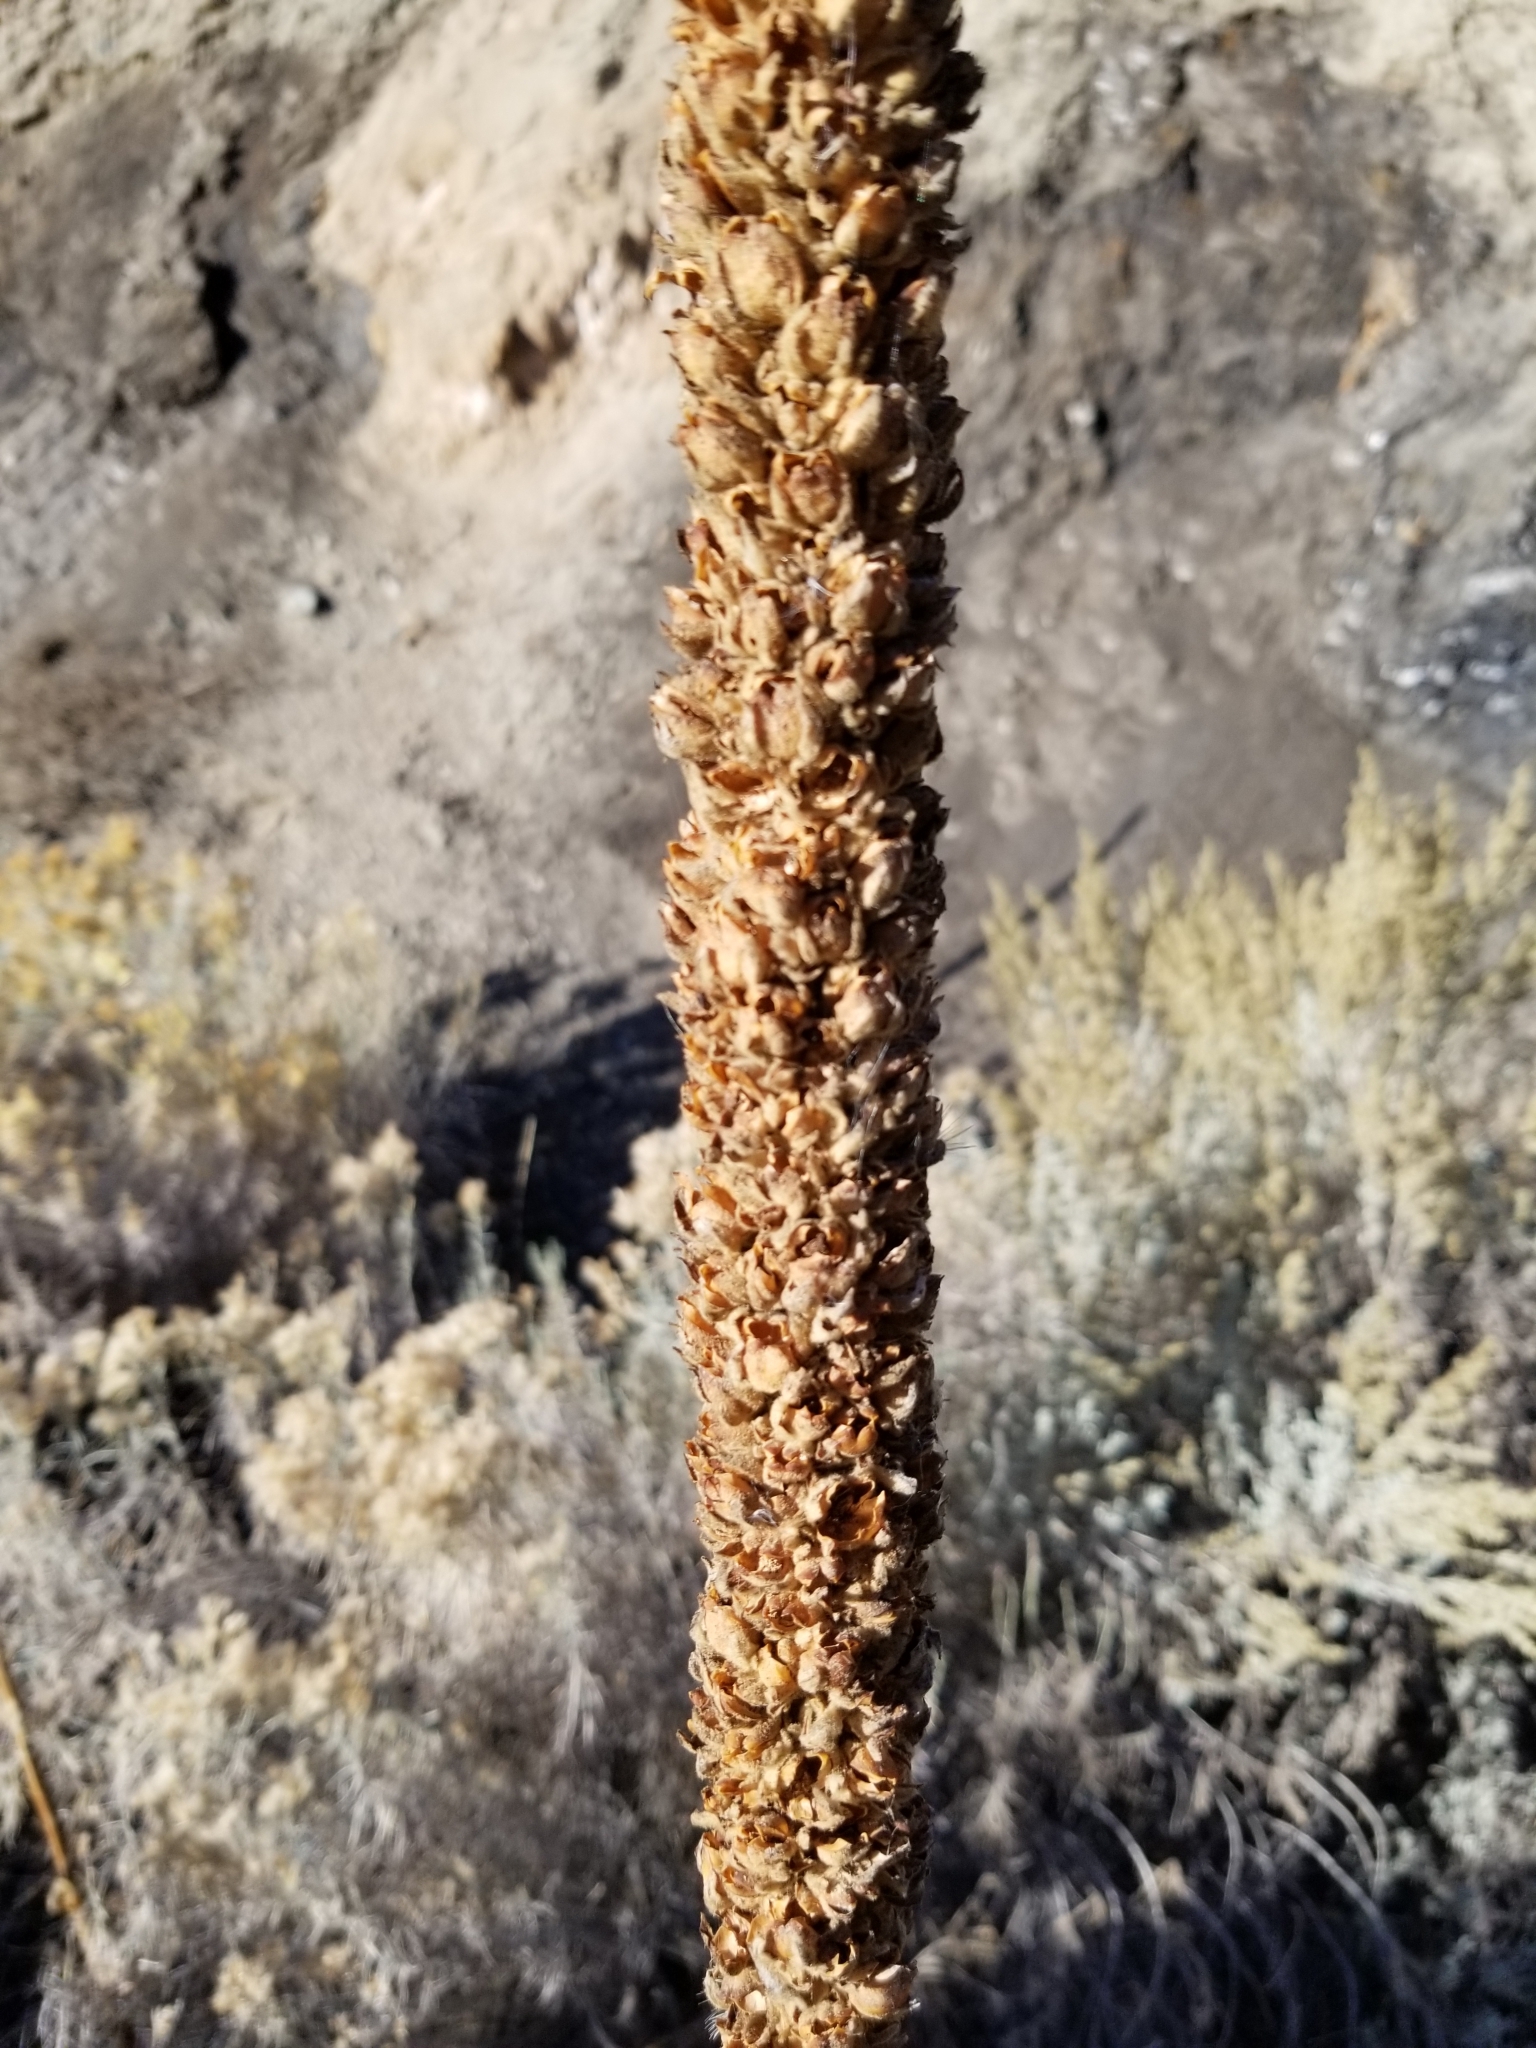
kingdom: Plantae
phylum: Tracheophyta
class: Magnoliopsida
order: Lamiales
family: Scrophulariaceae
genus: Verbascum
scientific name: Verbascum thapsus
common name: Common mullein
